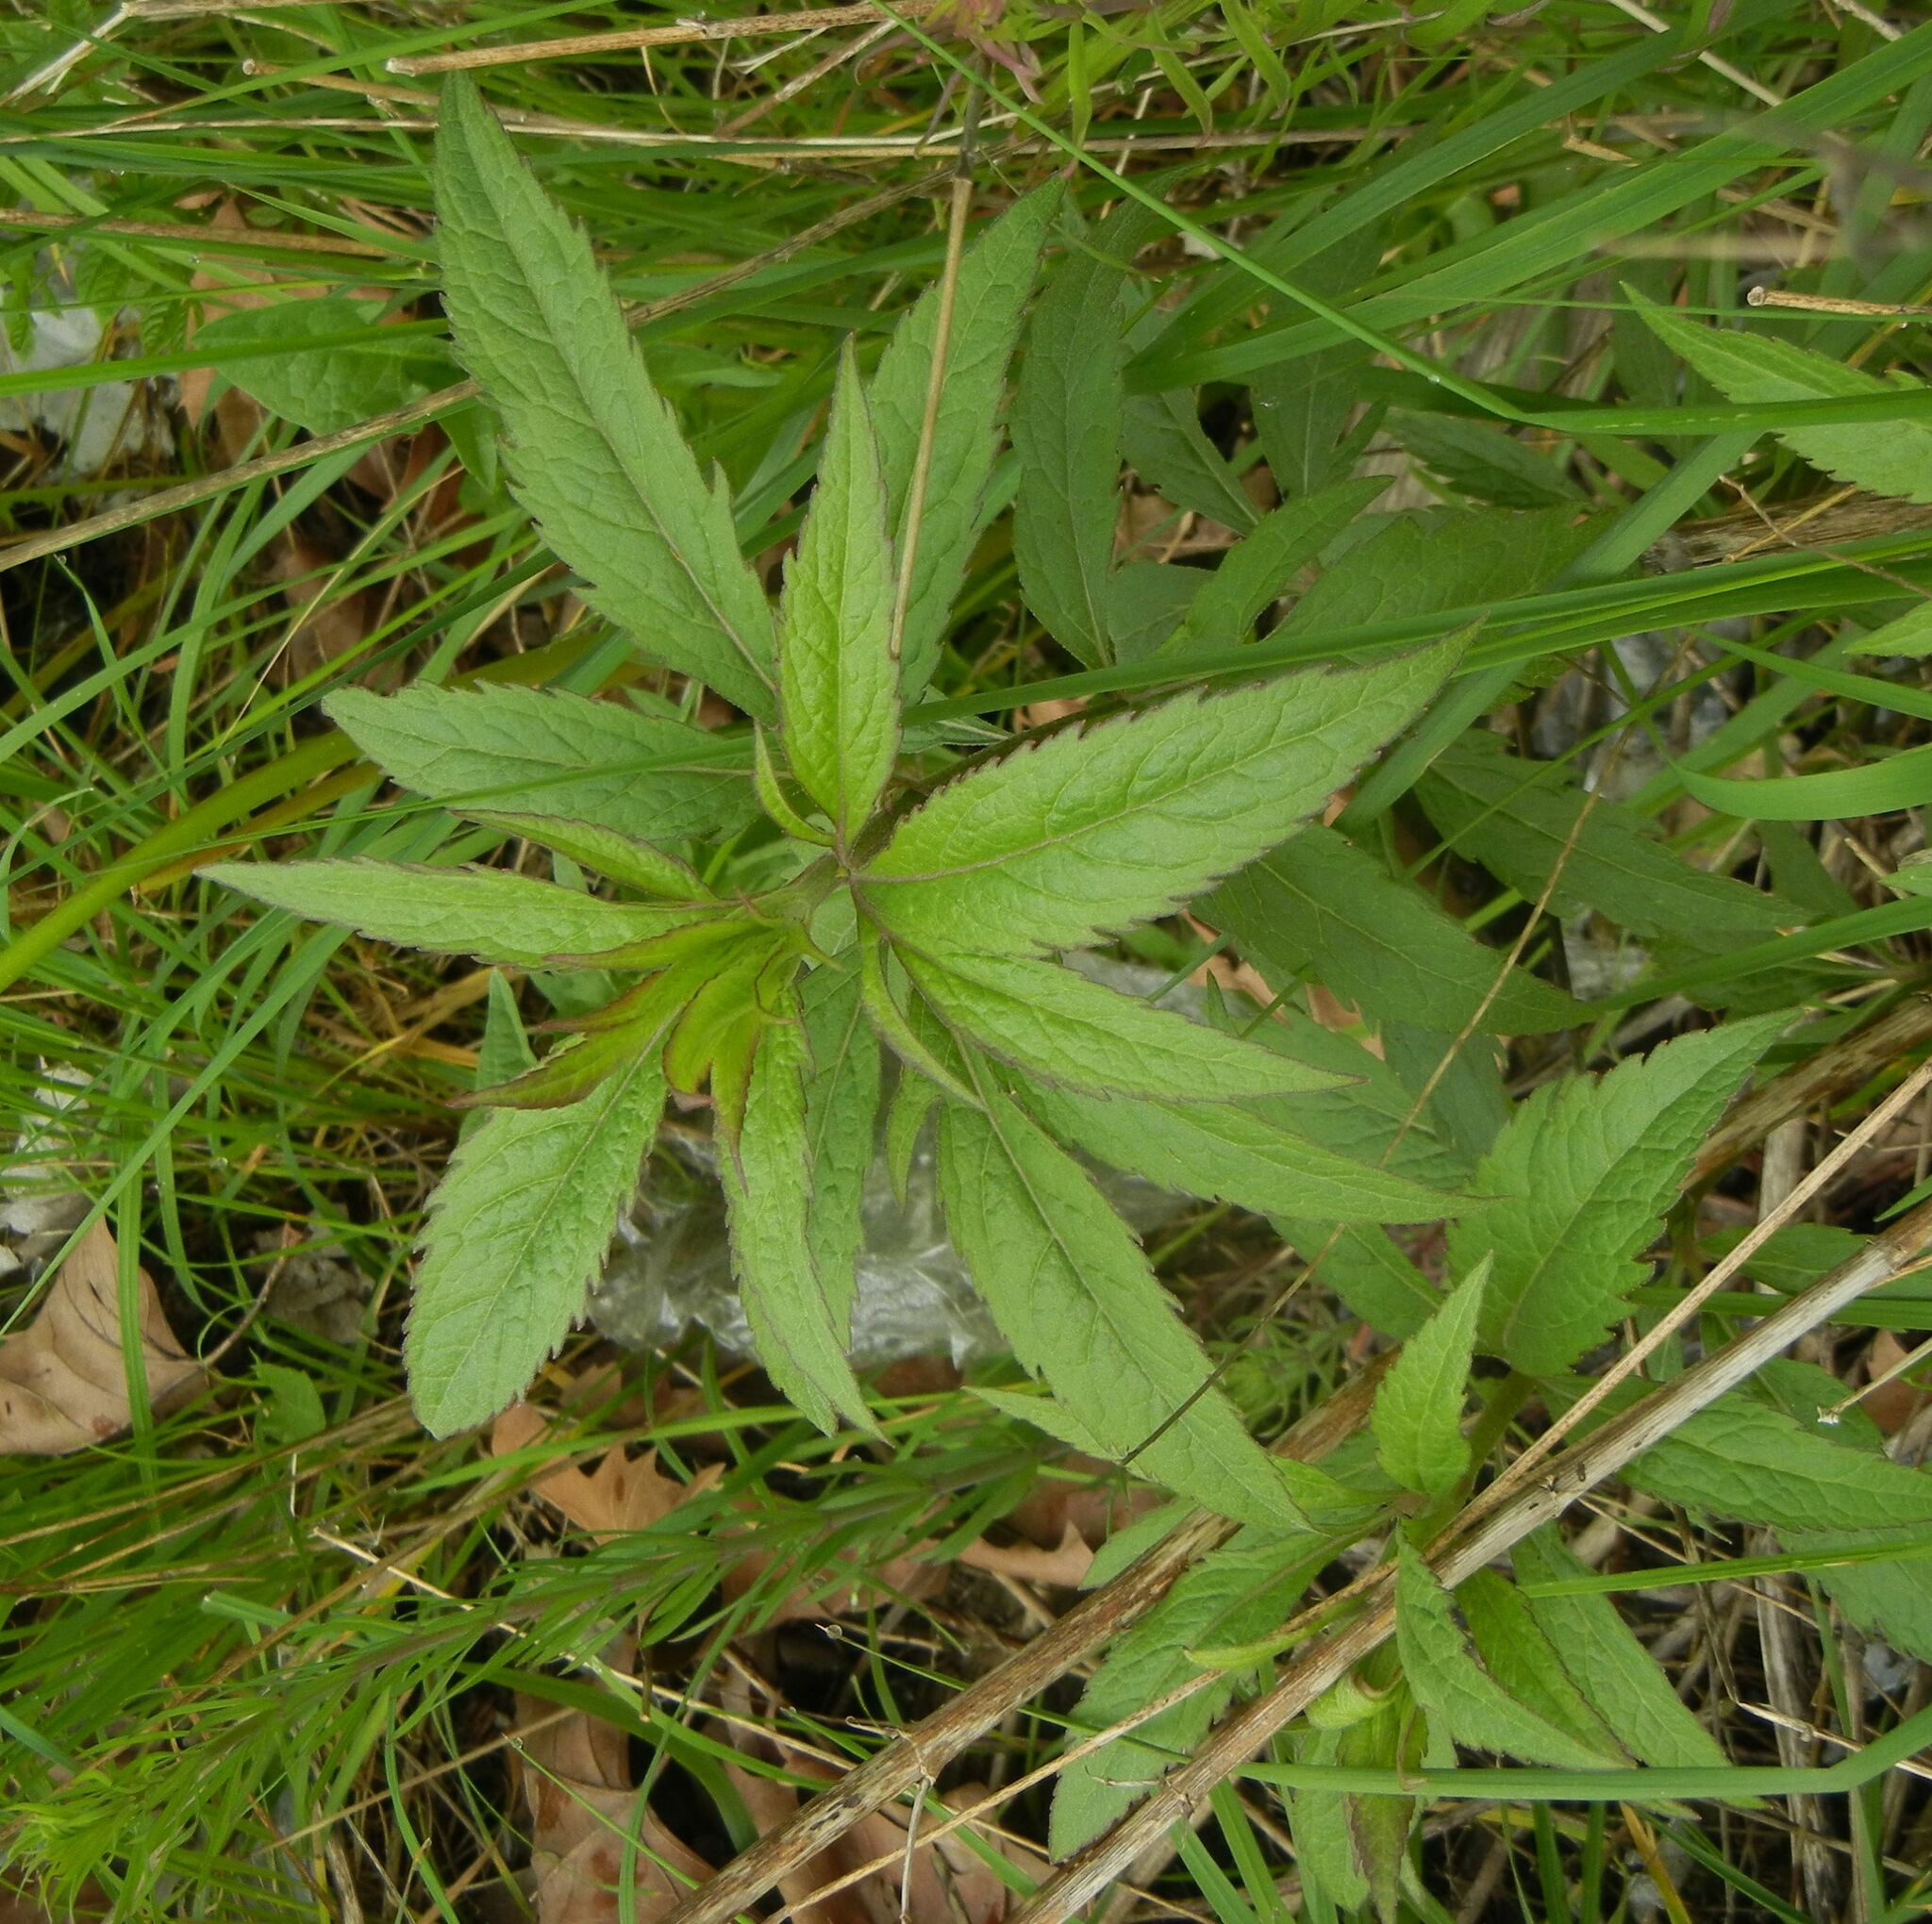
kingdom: Plantae
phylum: Tracheophyta
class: Magnoliopsida
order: Asterales
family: Asteraceae
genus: Eupatorium
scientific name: Eupatorium cannabinum
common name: Hemp-agrimony
